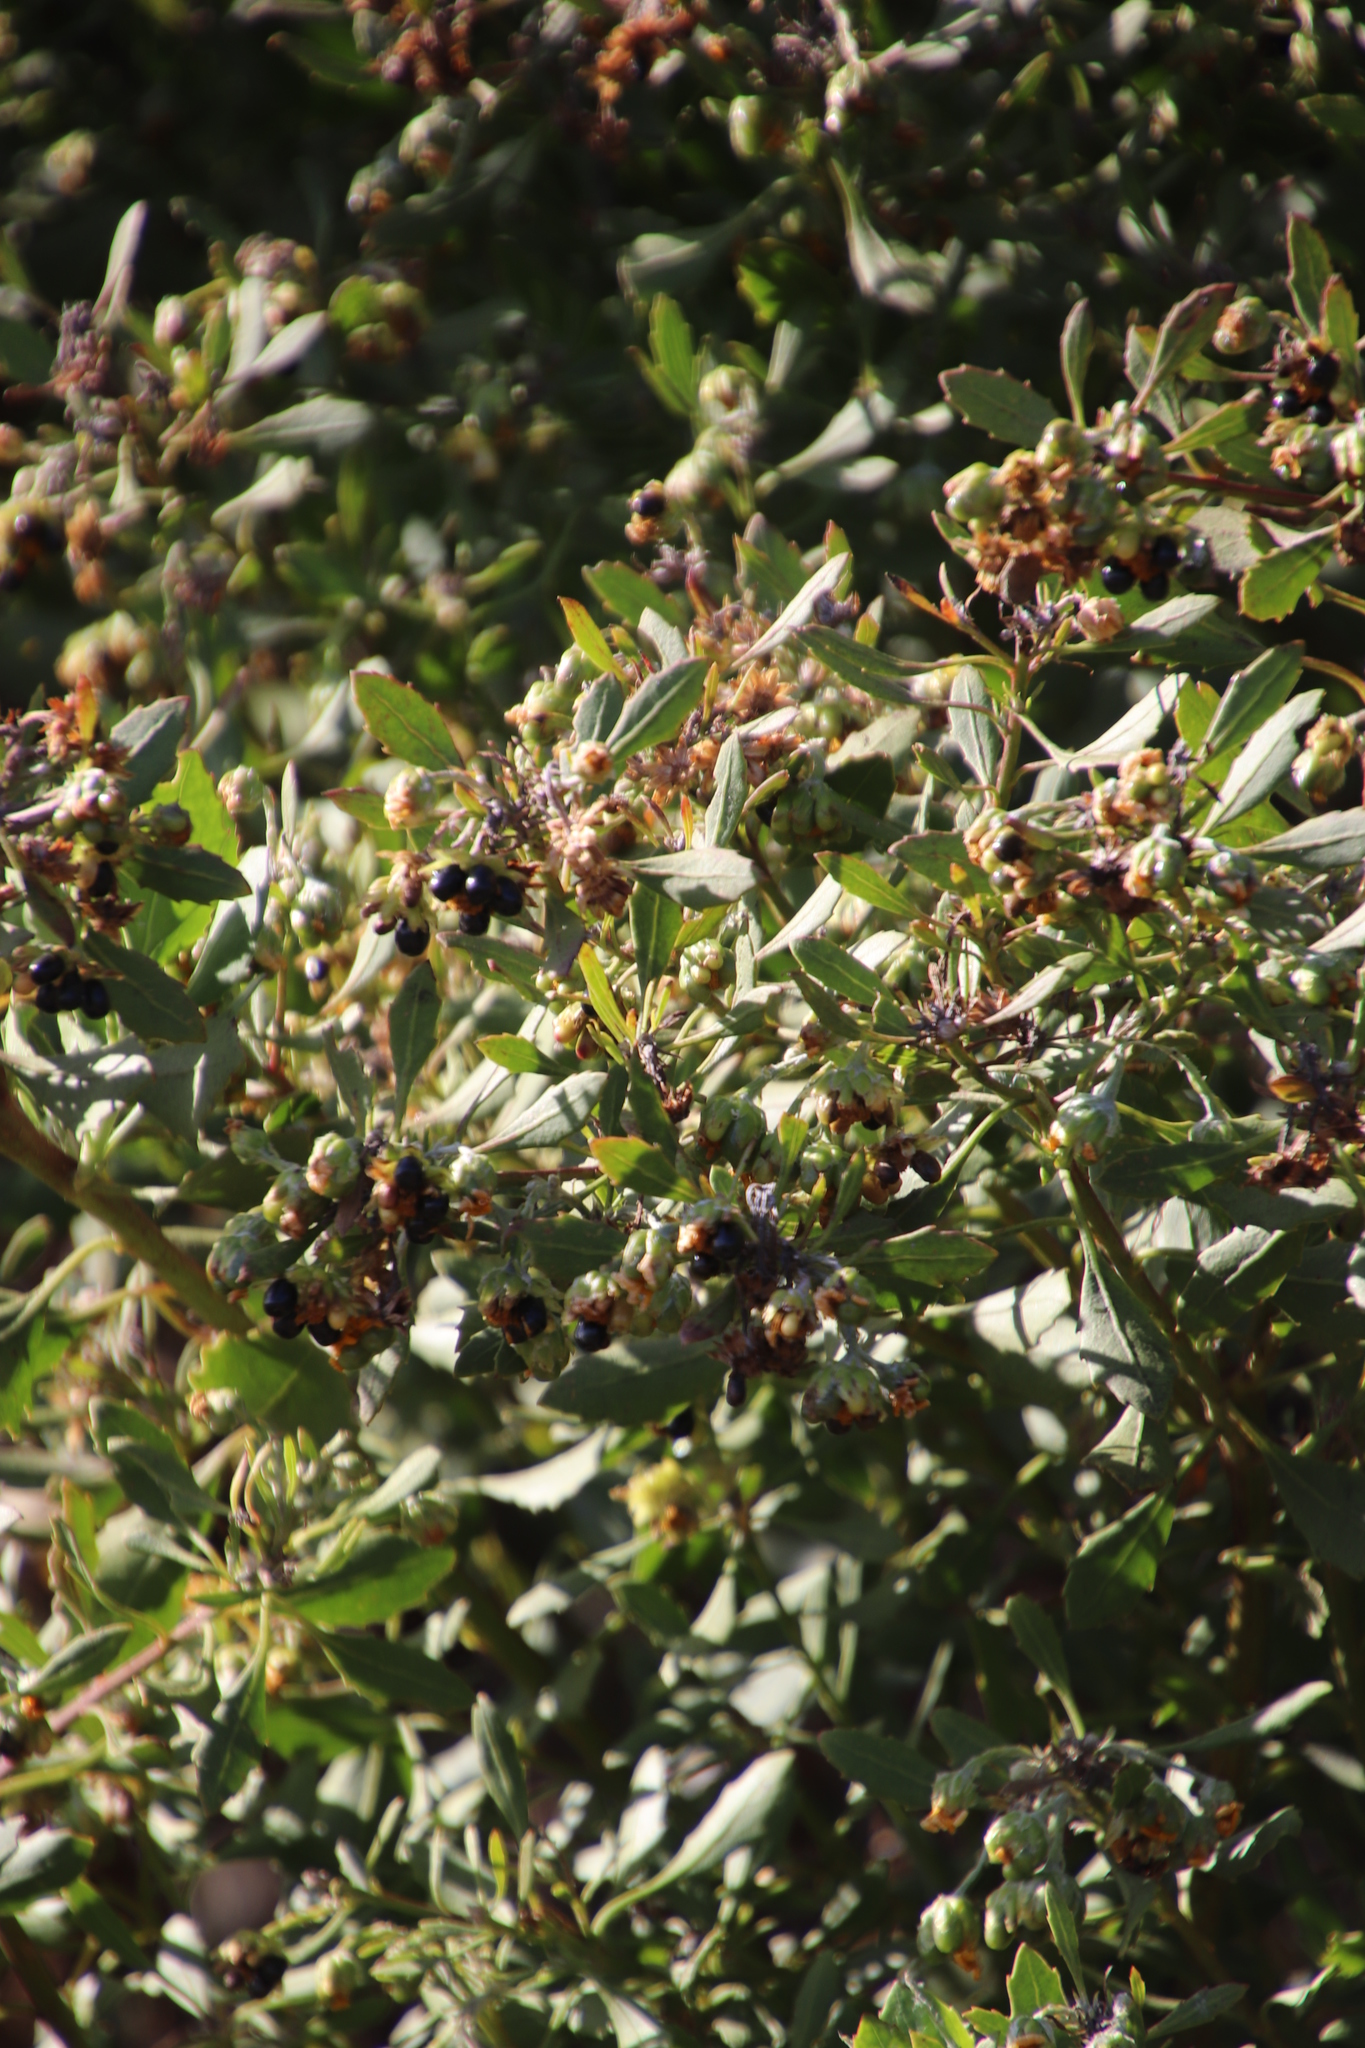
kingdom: Plantae
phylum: Tracheophyta
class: Magnoliopsida
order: Asterales
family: Asteraceae
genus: Osteospermum
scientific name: Osteospermum moniliferum
